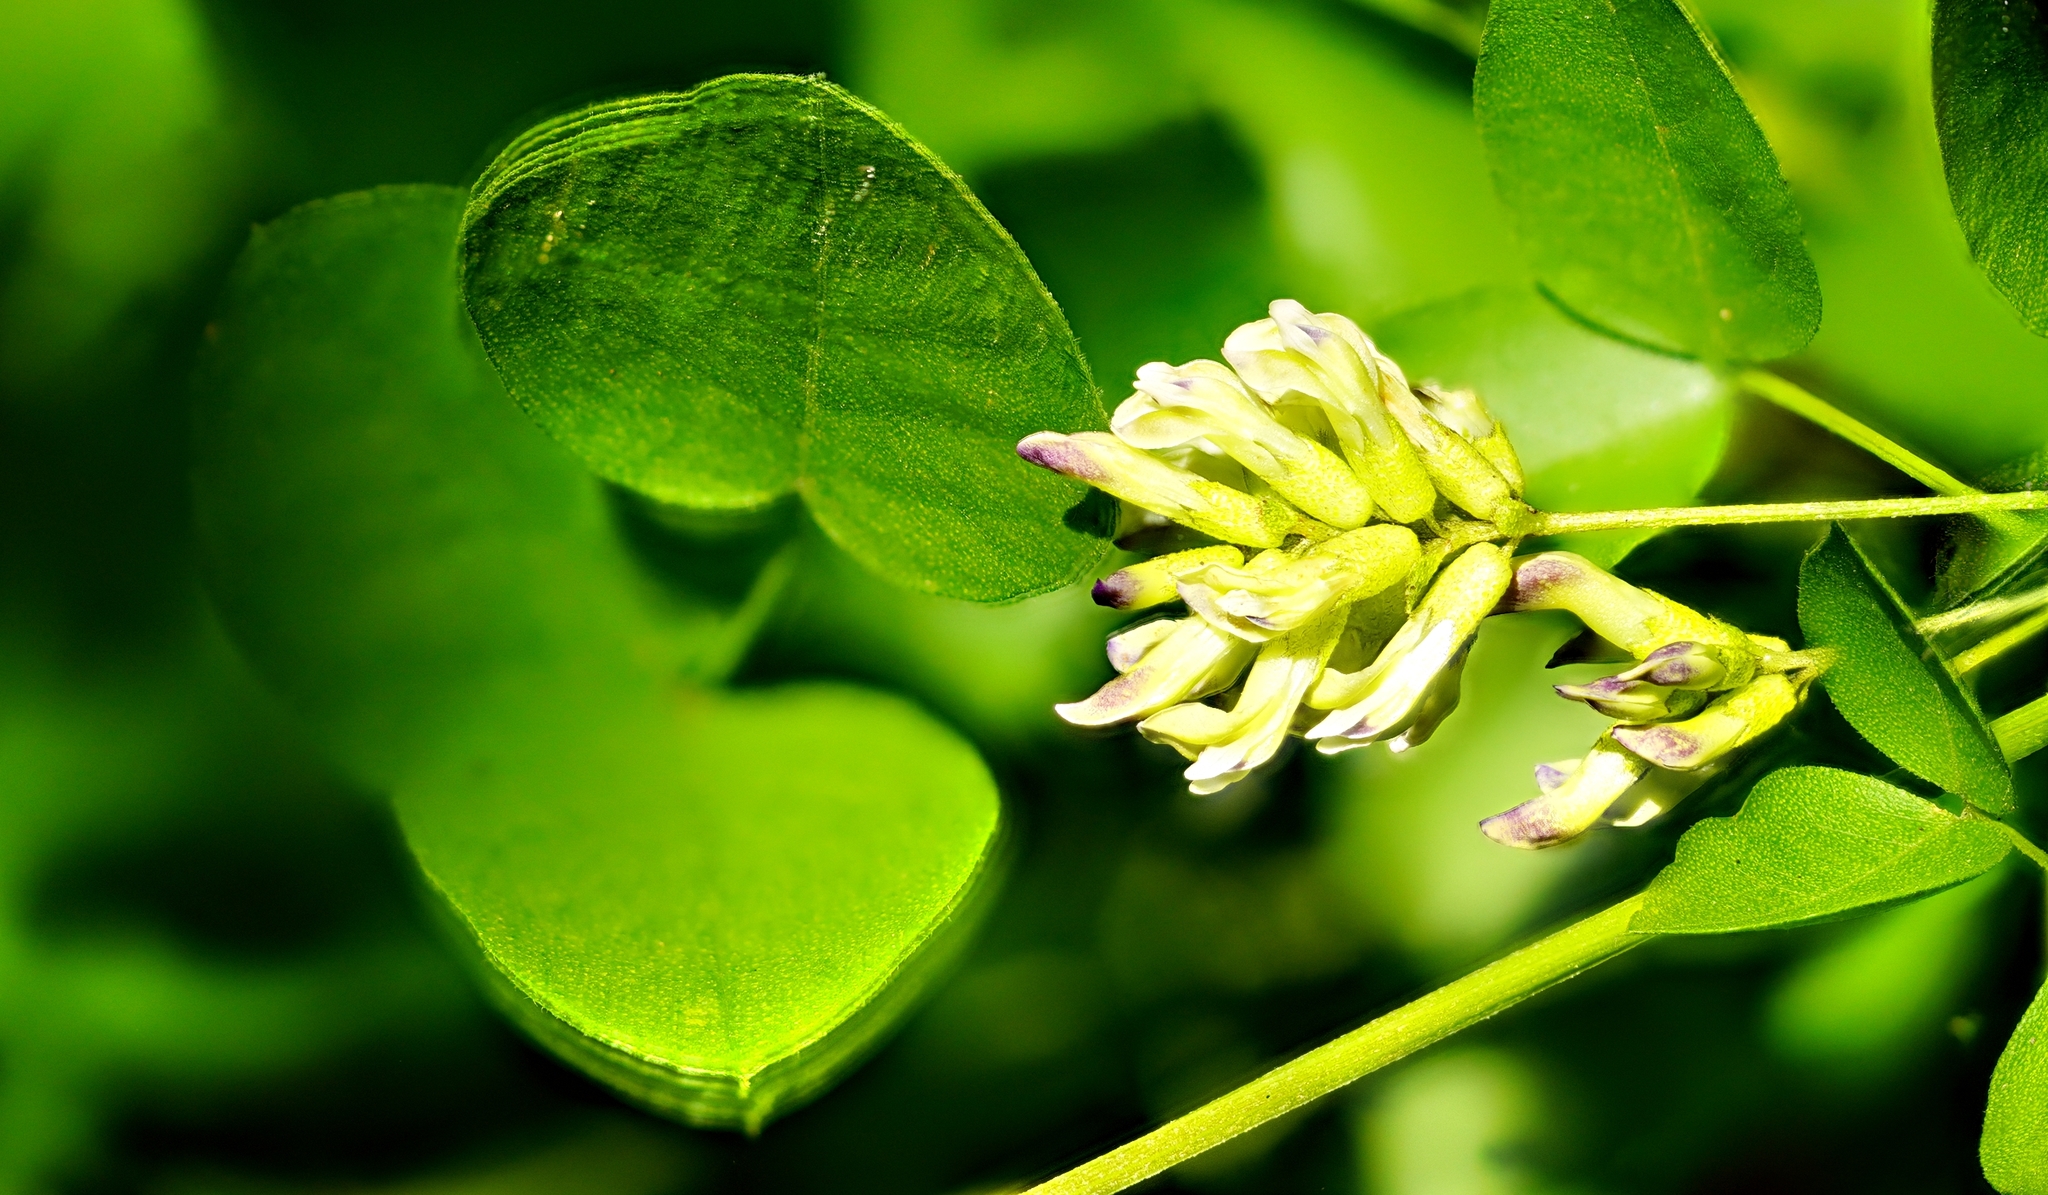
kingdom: Plantae
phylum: Tracheophyta
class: Magnoliopsida
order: Fabales
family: Fabaceae
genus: Rupertia
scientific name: Rupertia physodes
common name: California-tea
